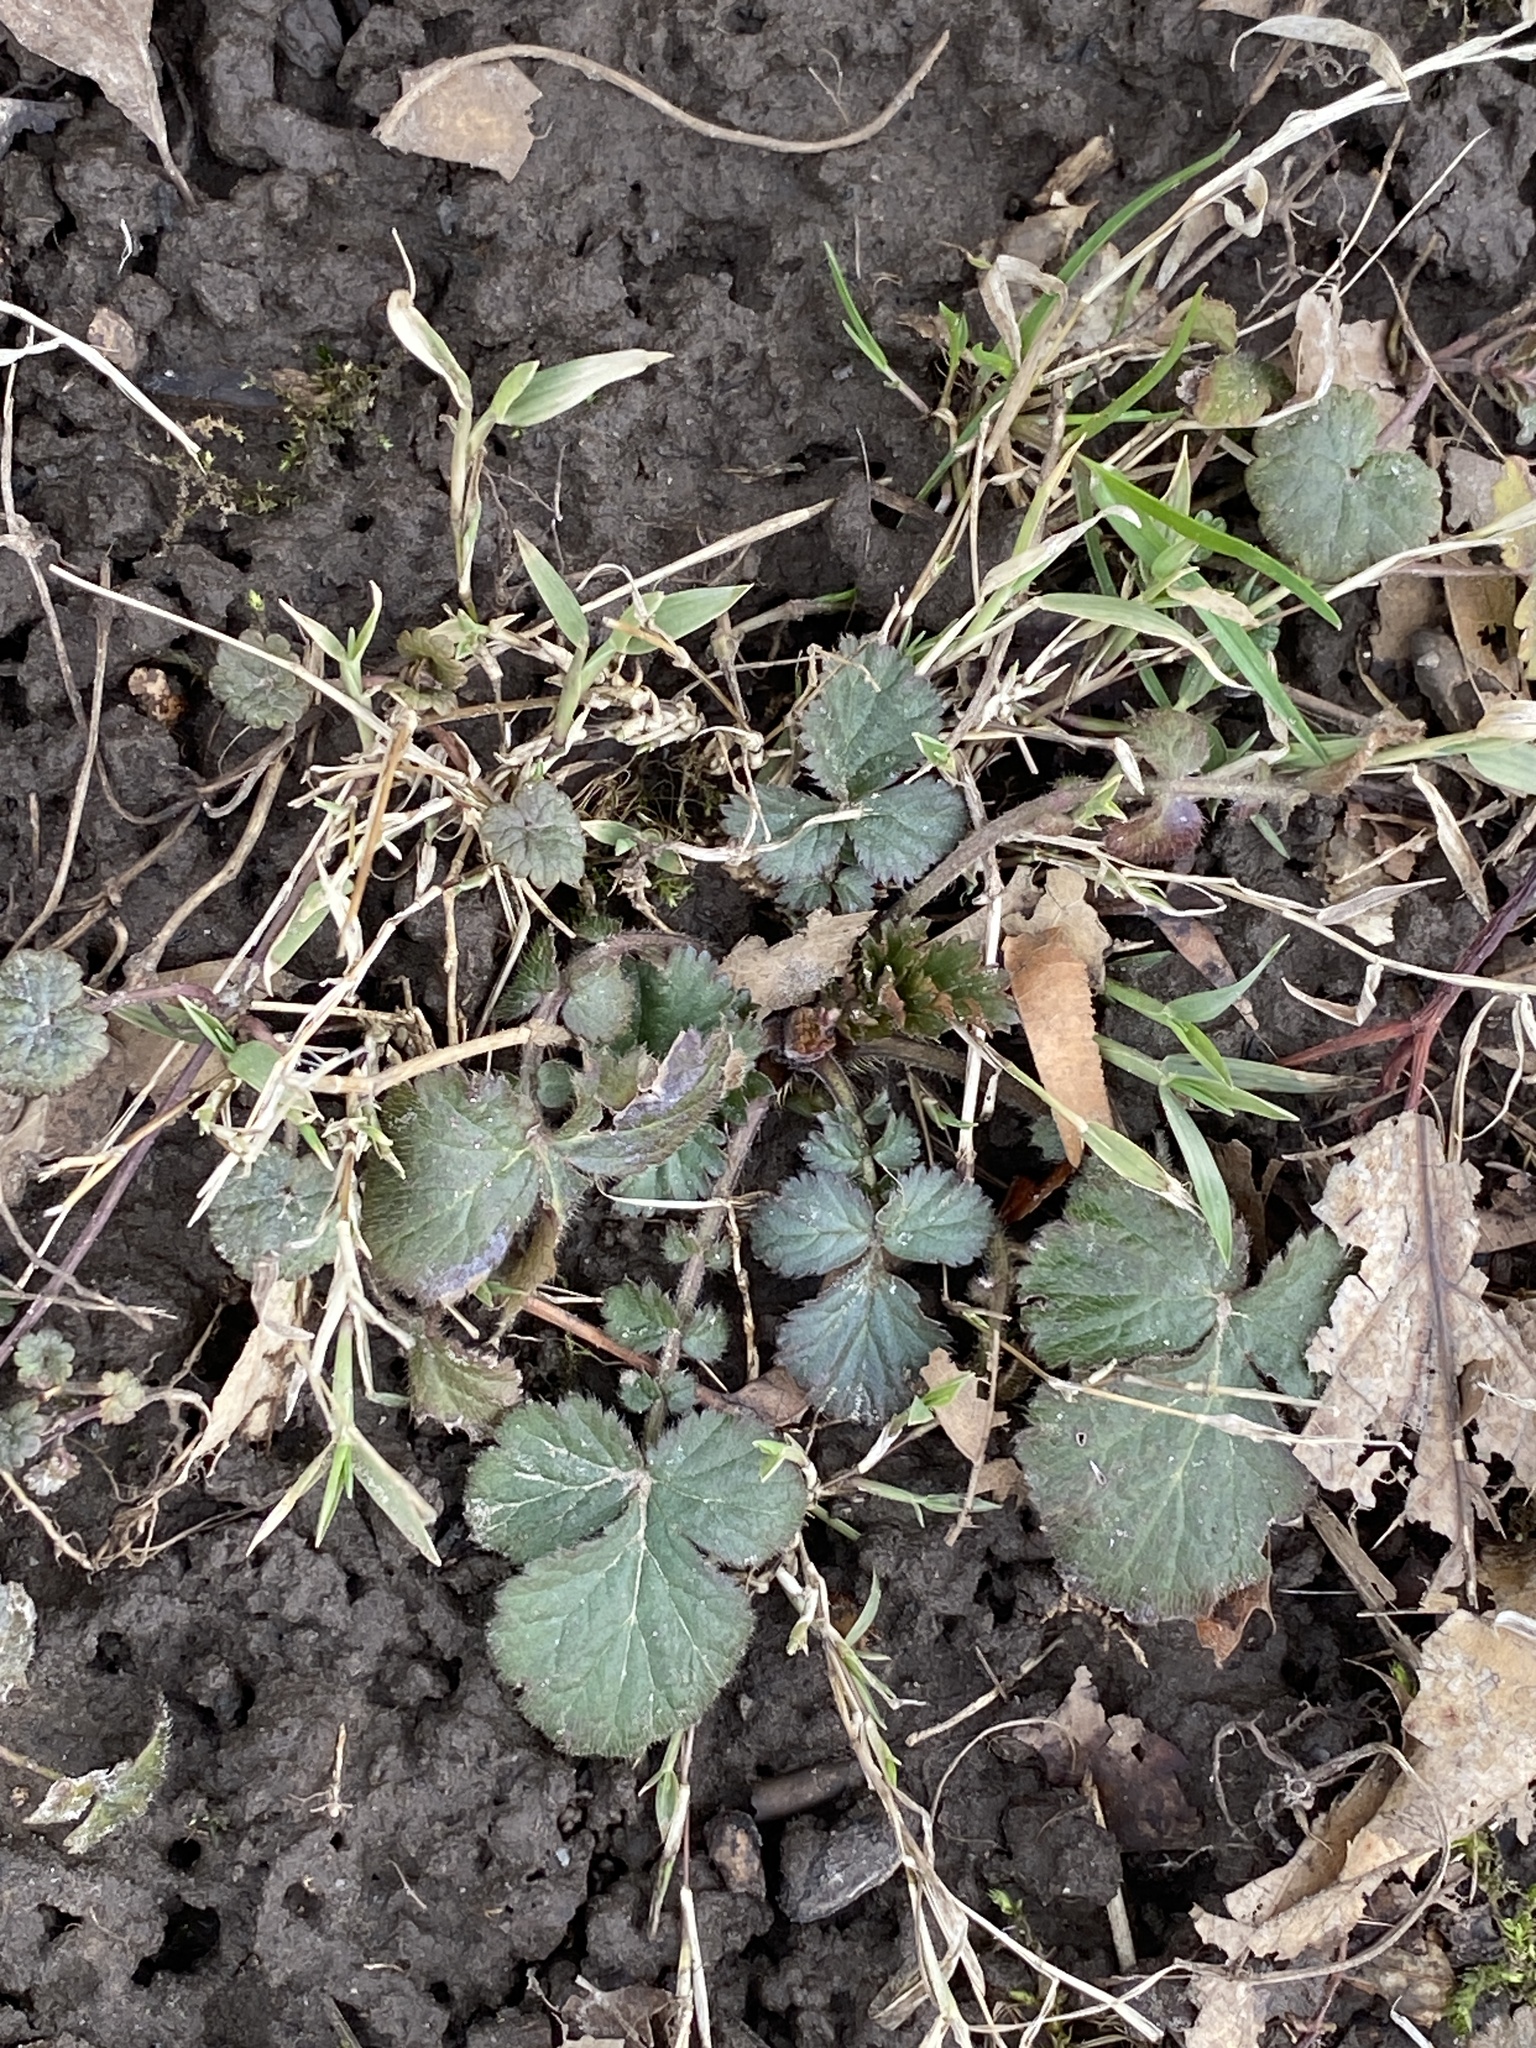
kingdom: Plantae
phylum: Tracheophyta
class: Magnoliopsida
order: Rosales
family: Rosaceae
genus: Geum
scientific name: Geum canadense
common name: White avens
